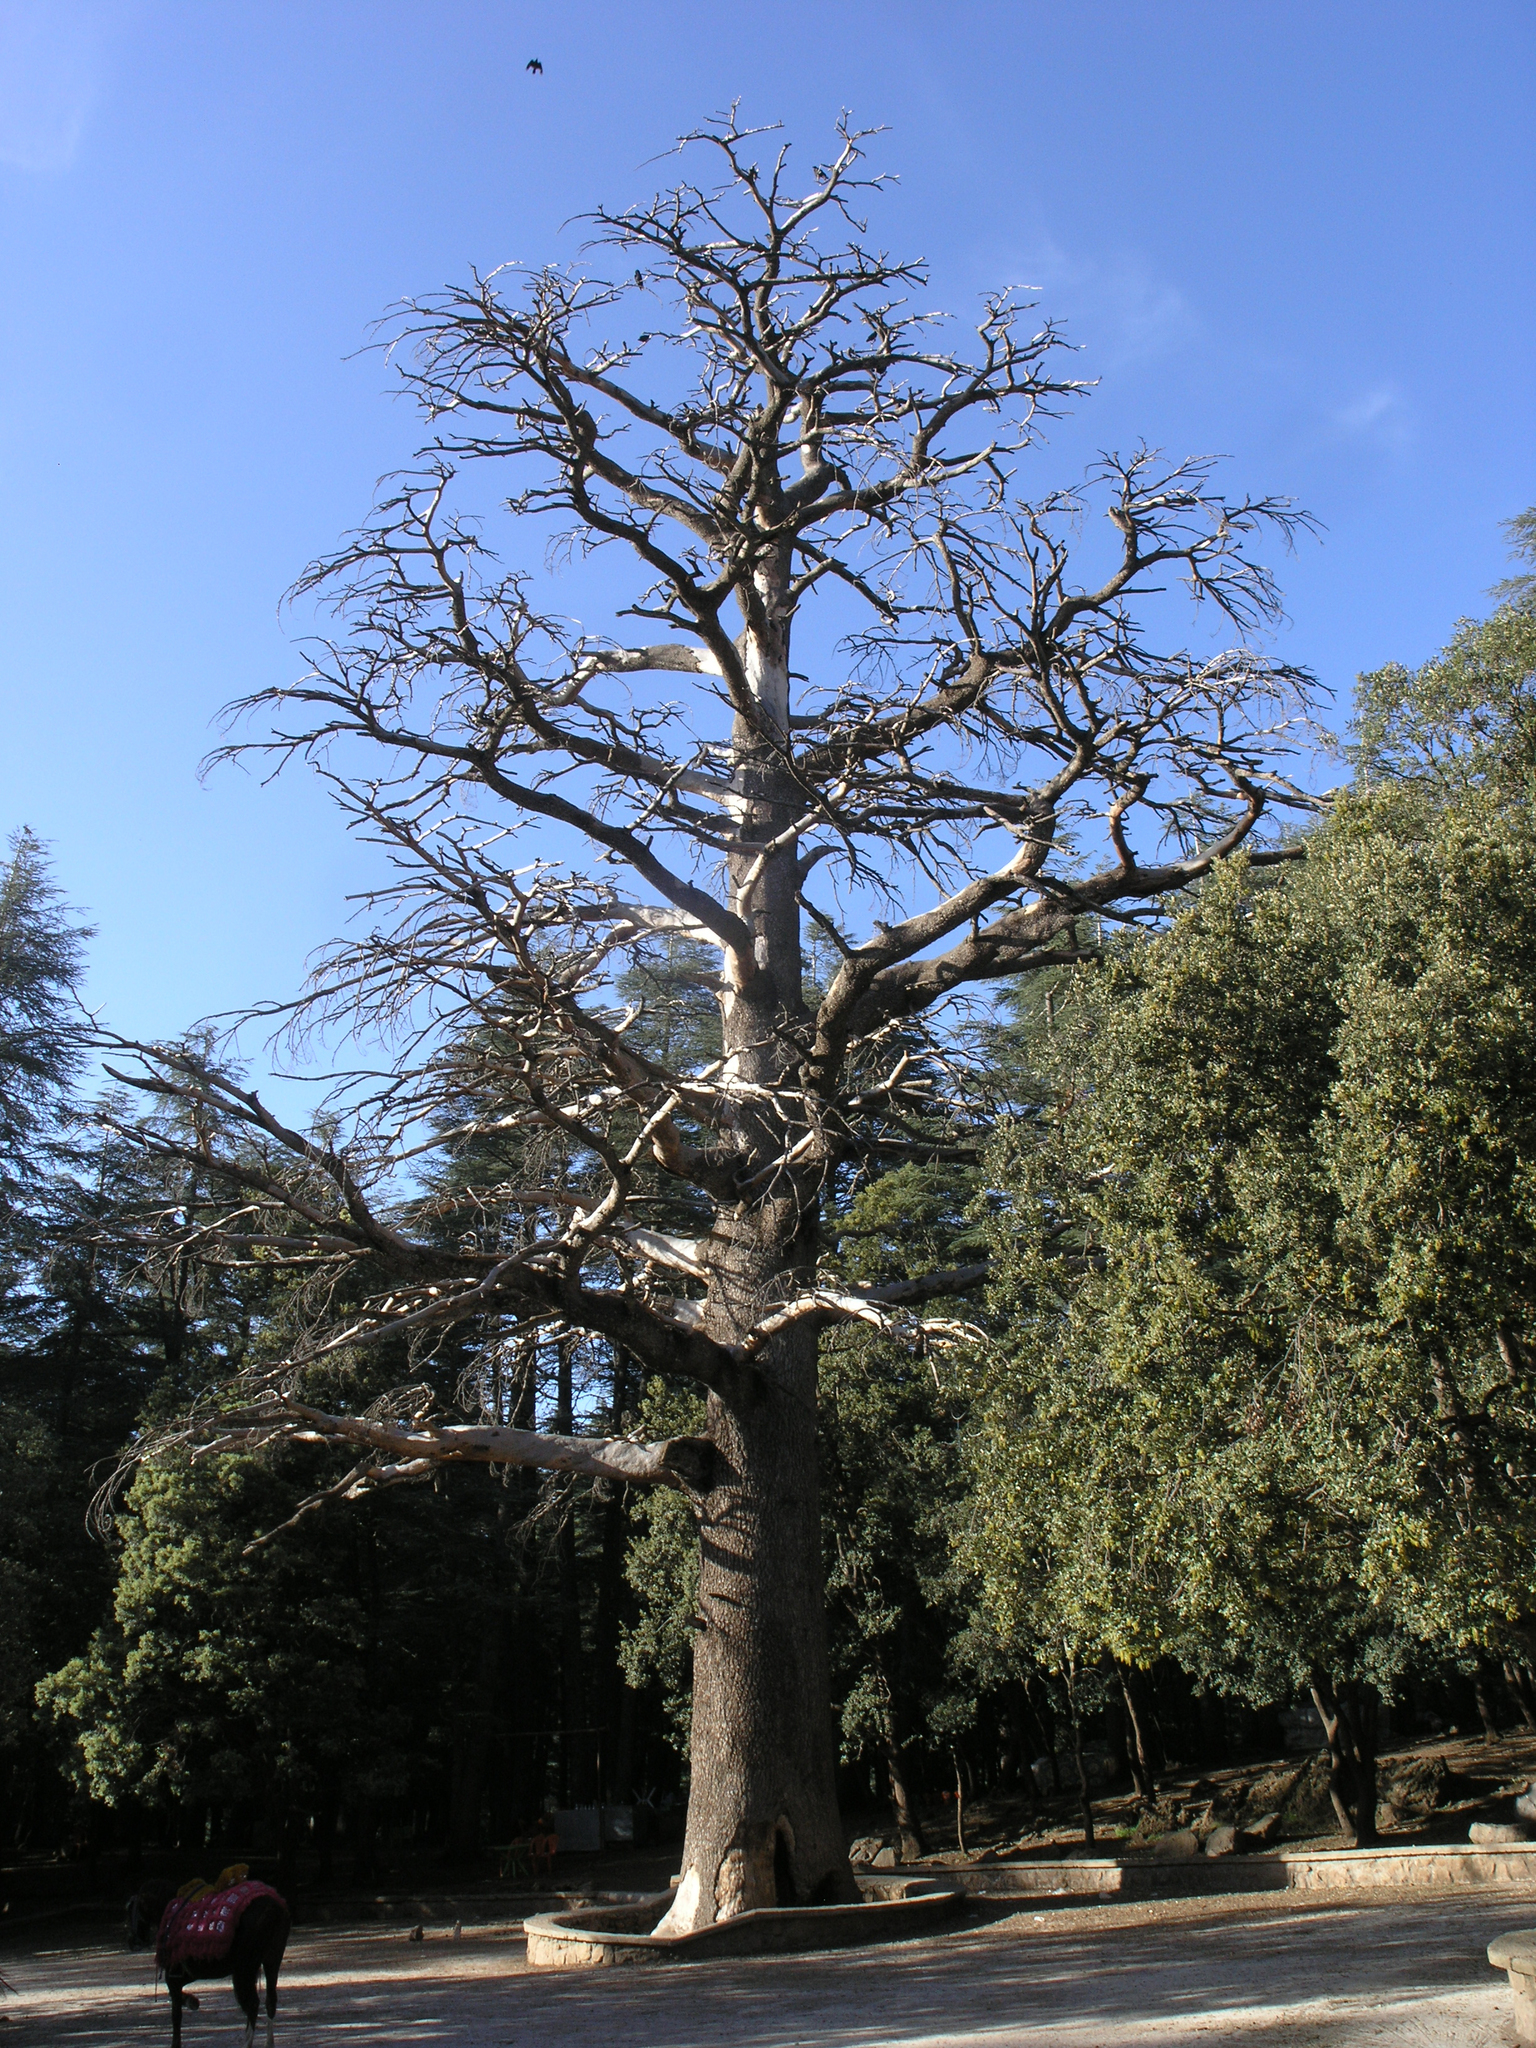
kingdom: Plantae
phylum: Tracheophyta
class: Pinopsida
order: Pinales
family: Pinaceae
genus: Cedrus
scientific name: Cedrus atlantica
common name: Atlas cedar
